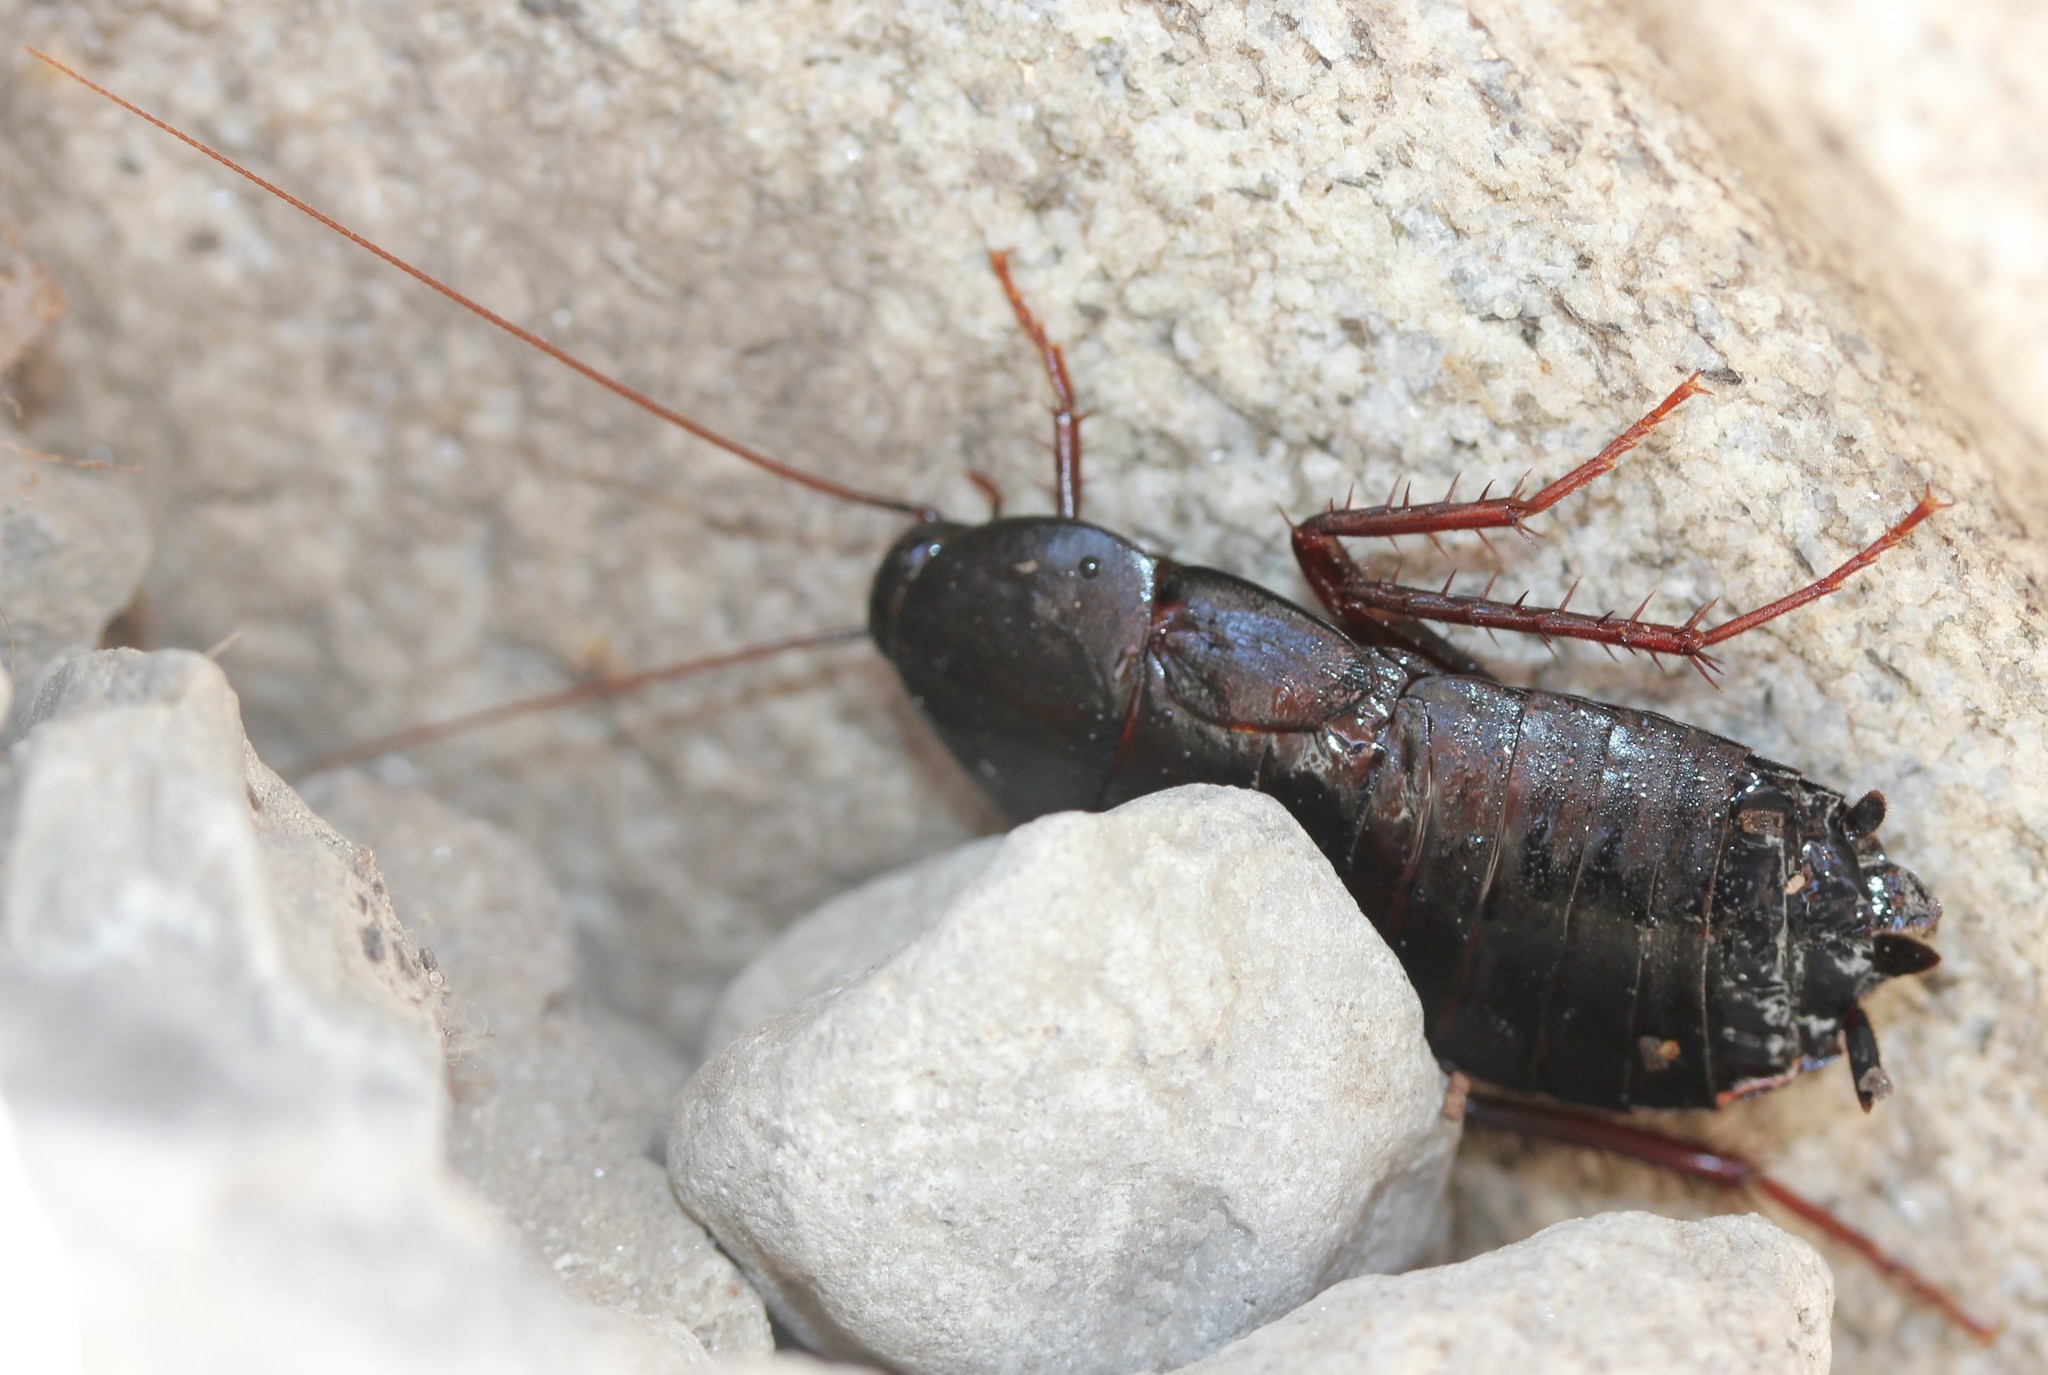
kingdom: Animalia
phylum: Arthropoda
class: Insecta
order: Blattodea
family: Blattidae
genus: Blatta
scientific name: Blatta orientalis
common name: Oriental cockroach
